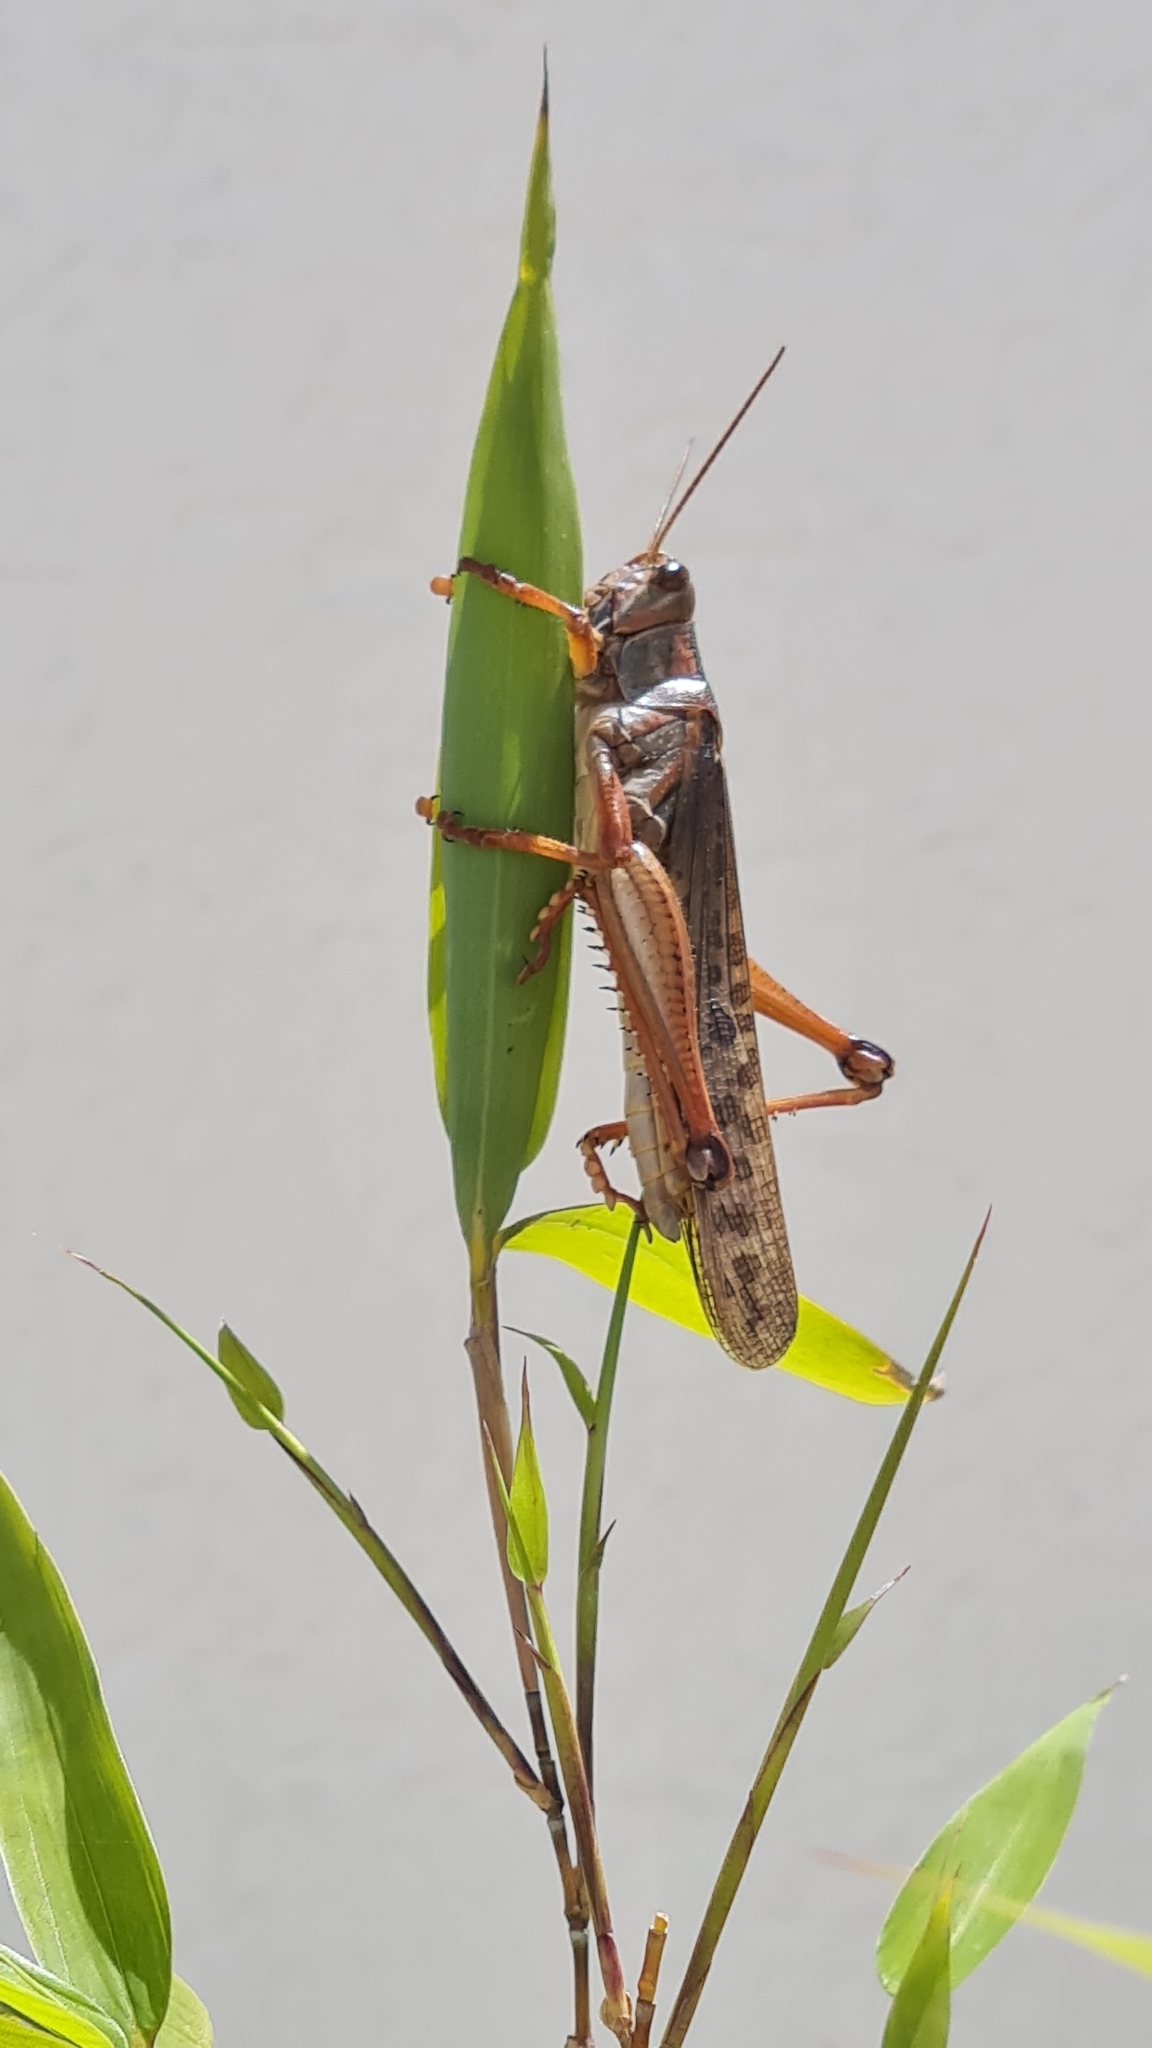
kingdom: Animalia
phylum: Arthropoda
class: Insecta
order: Orthoptera
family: Acrididae
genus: Schistocerca
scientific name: Schistocerca piceifrons
